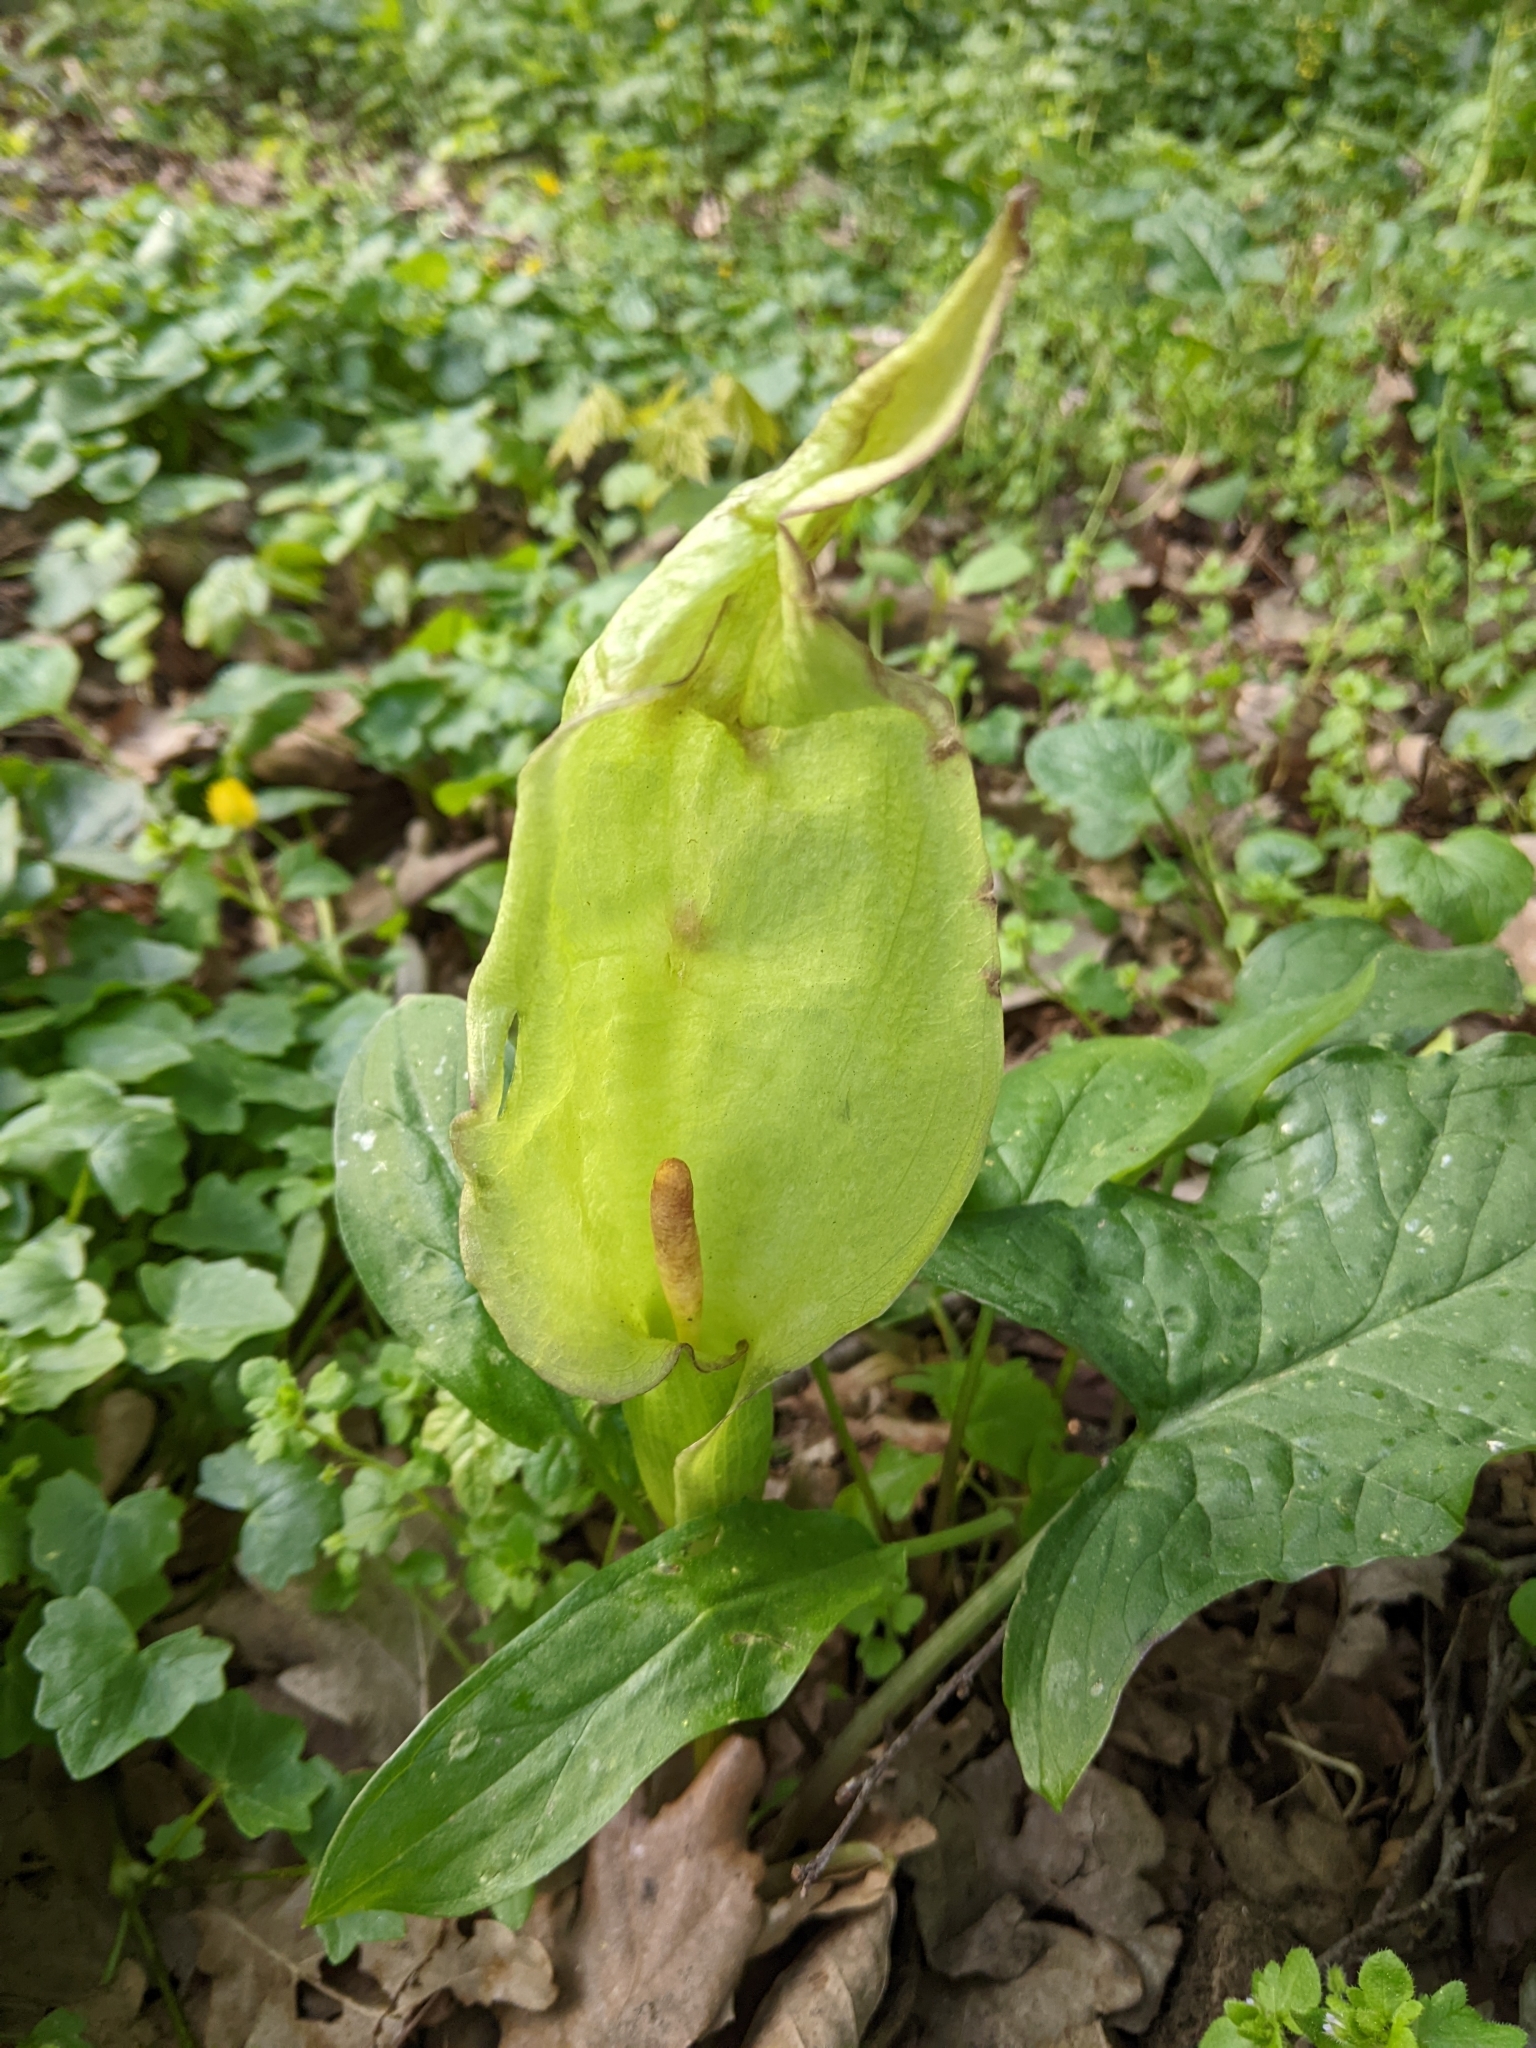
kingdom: Plantae
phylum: Tracheophyta
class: Liliopsida
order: Alismatales
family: Araceae
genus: Arum
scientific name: Arum maculatum
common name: Lords-and-ladies
